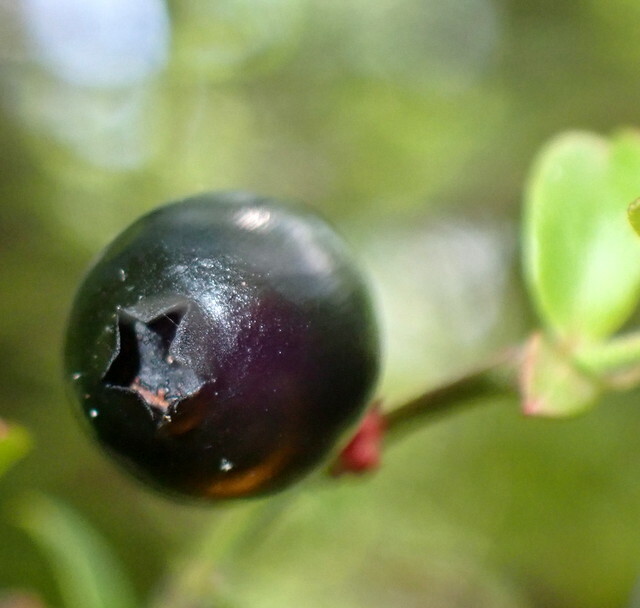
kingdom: Plantae
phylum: Tracheophyta
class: Magnoliopsida
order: Ericales
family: Ericaceae
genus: Vaccinium
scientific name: Vaccinium corymbosum
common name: Blueberry
